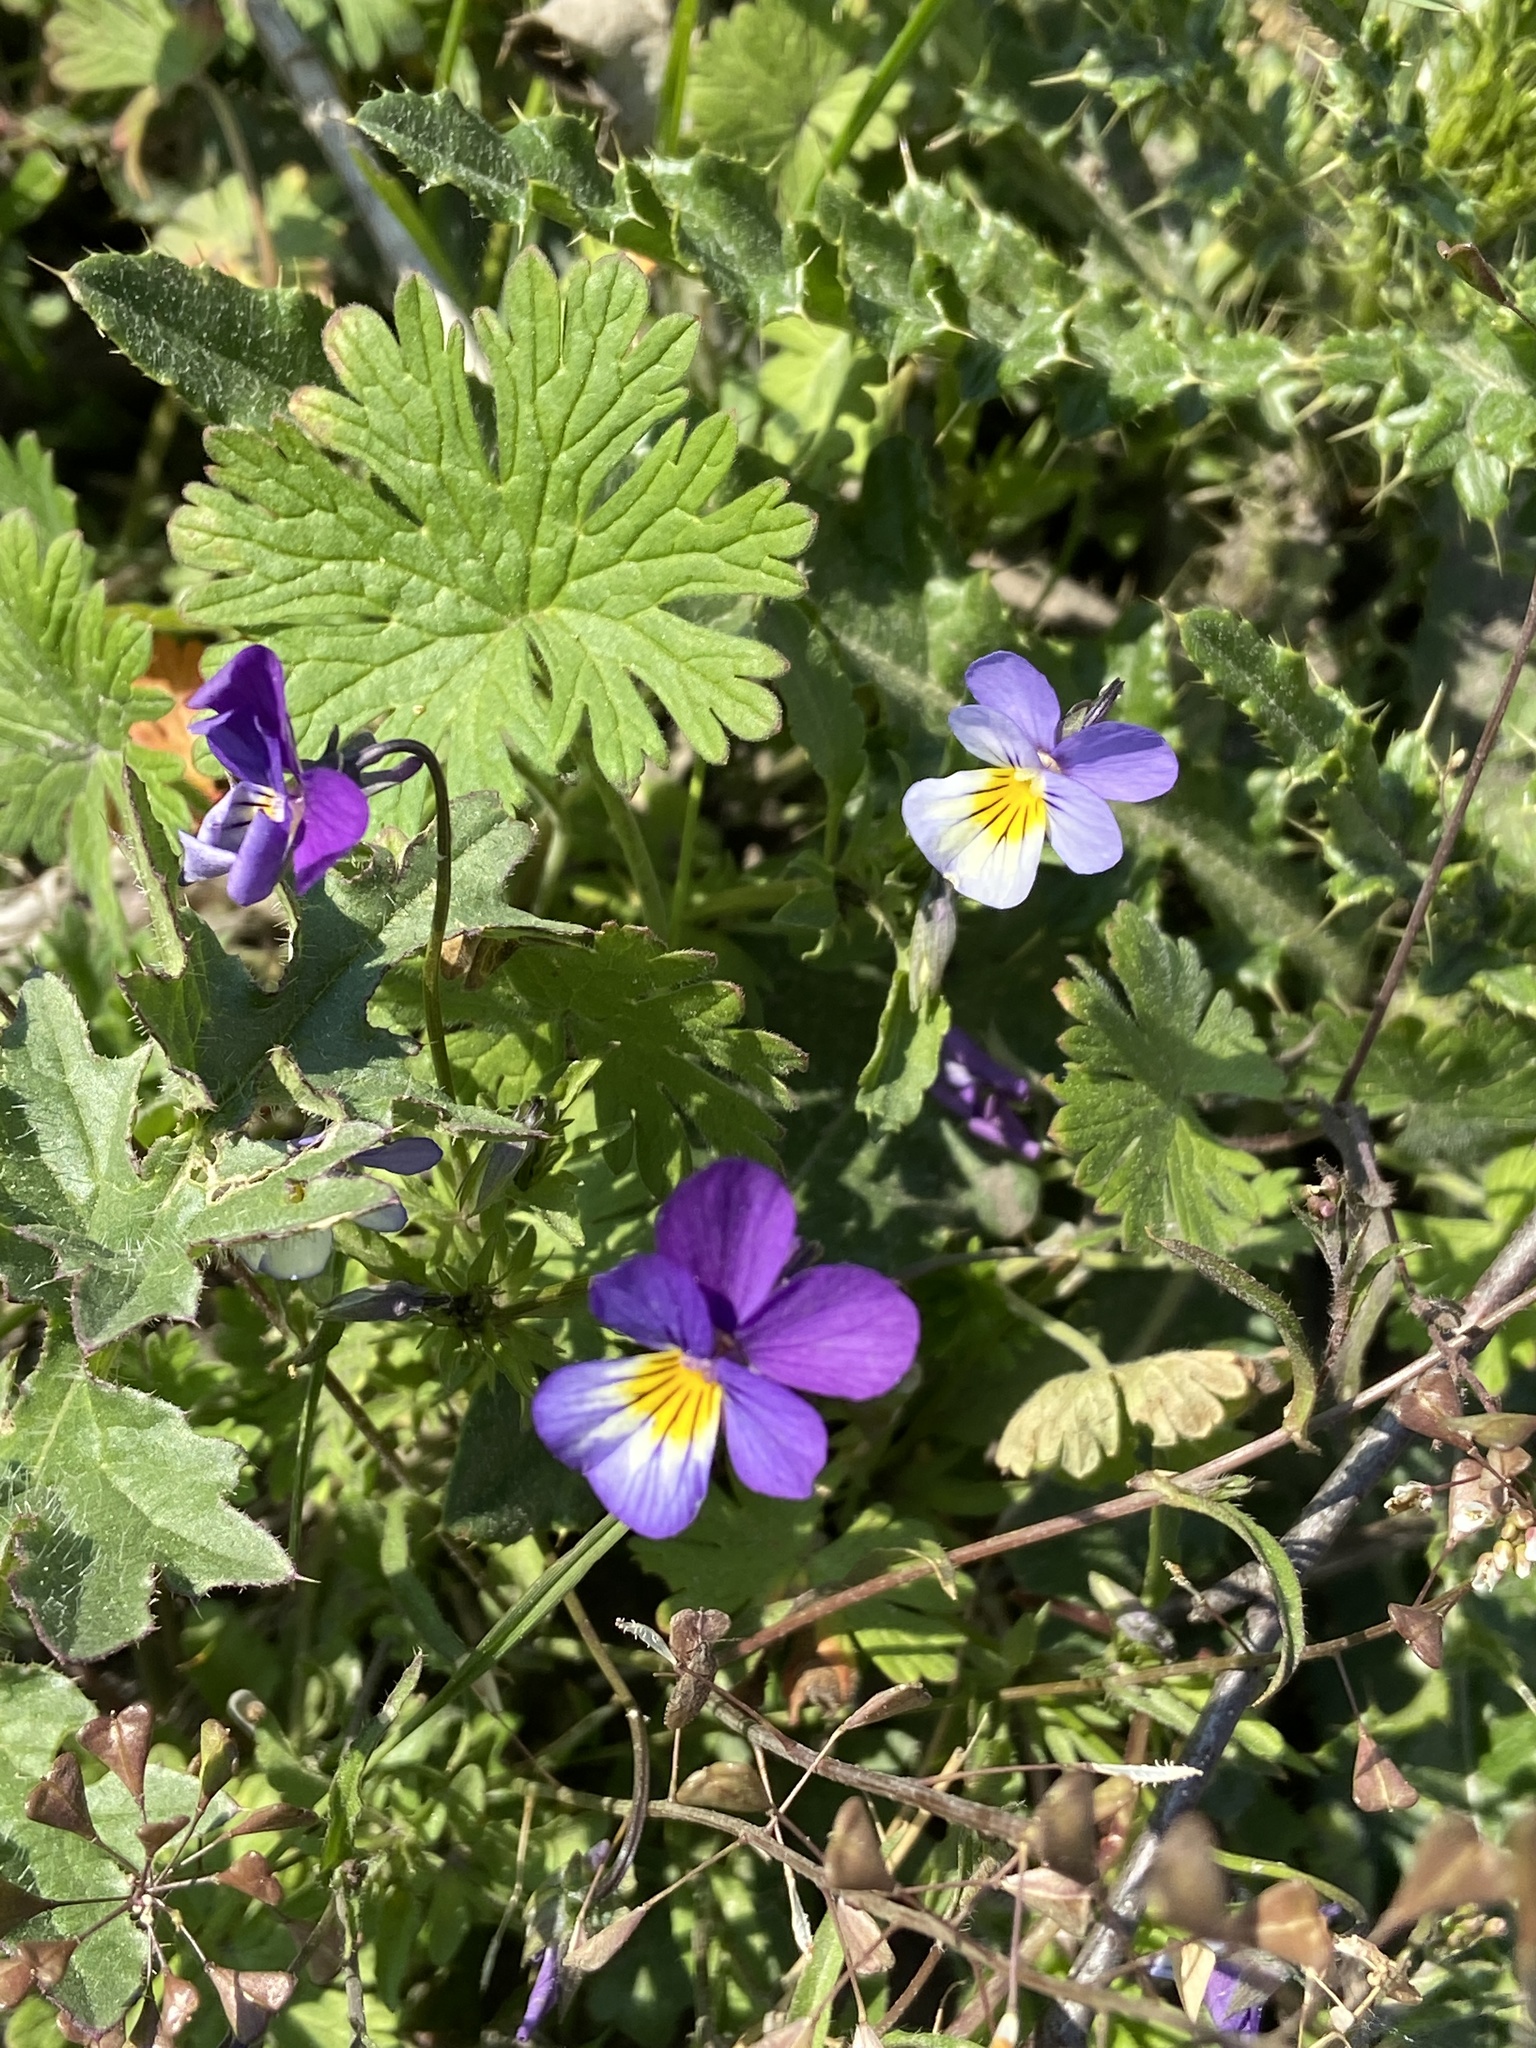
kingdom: Plantae
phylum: Tracheophyta
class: Magnoliopsida
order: Malpighiales
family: Violaceae
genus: Viola
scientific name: Viola tricolor
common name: Pansy
